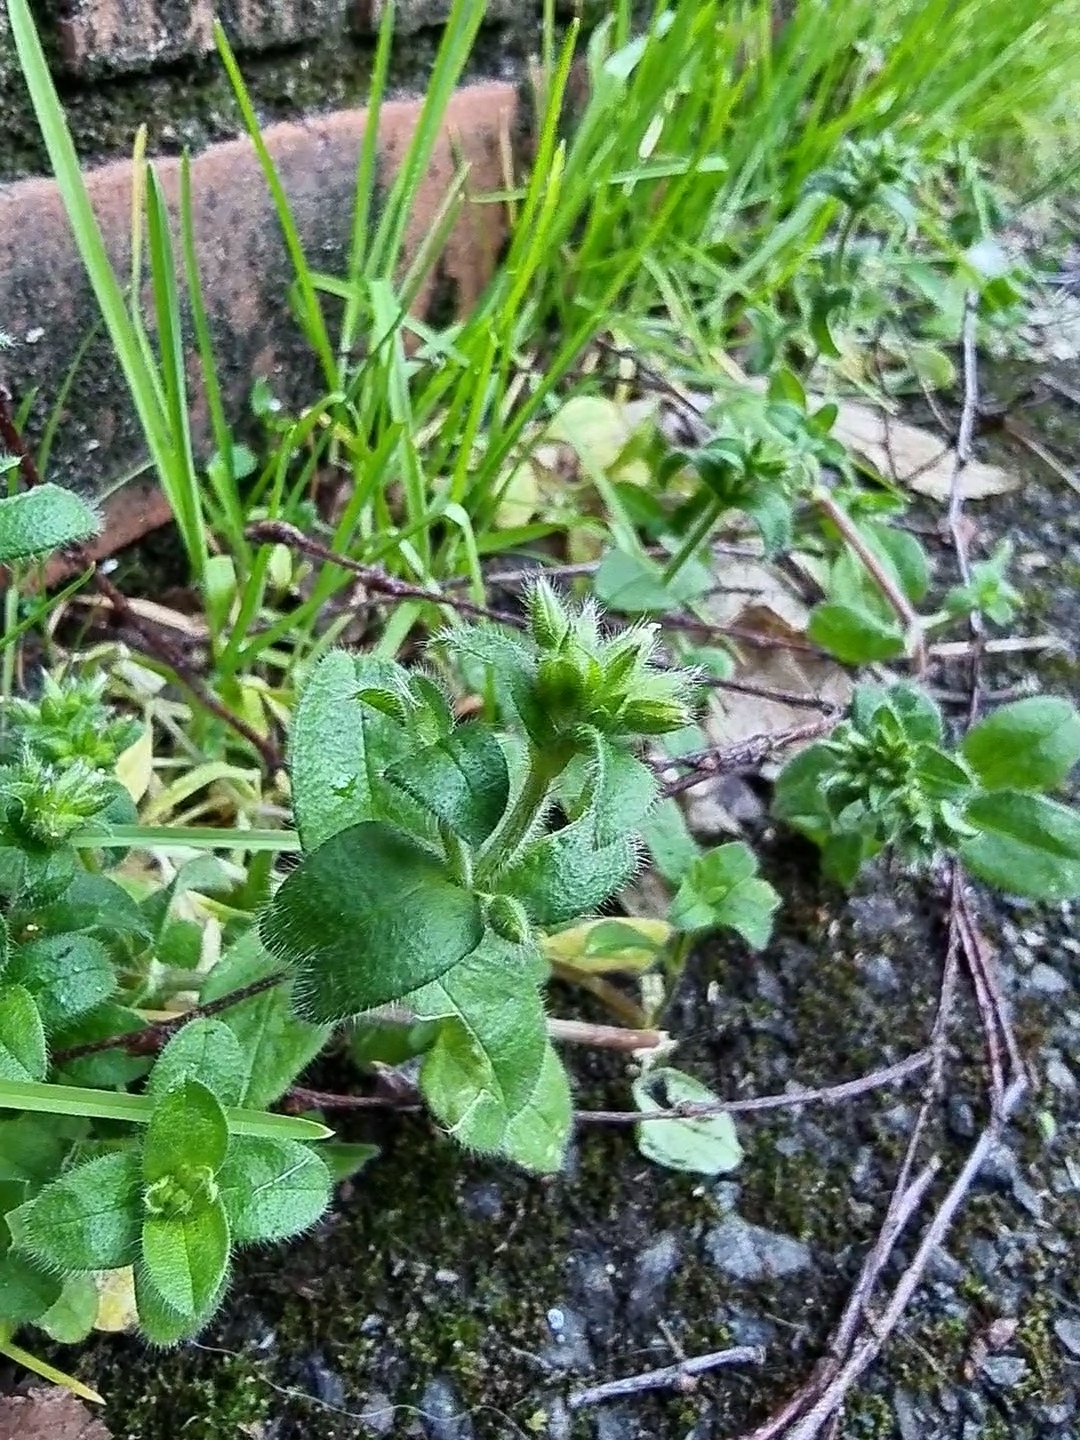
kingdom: Plantae
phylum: Tracheophyta
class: Magnoliopsida
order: Caryophyllales
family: Caryophyllaceae
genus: Cerastium
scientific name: Cerastium glomeratum
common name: Sticky chickweed
